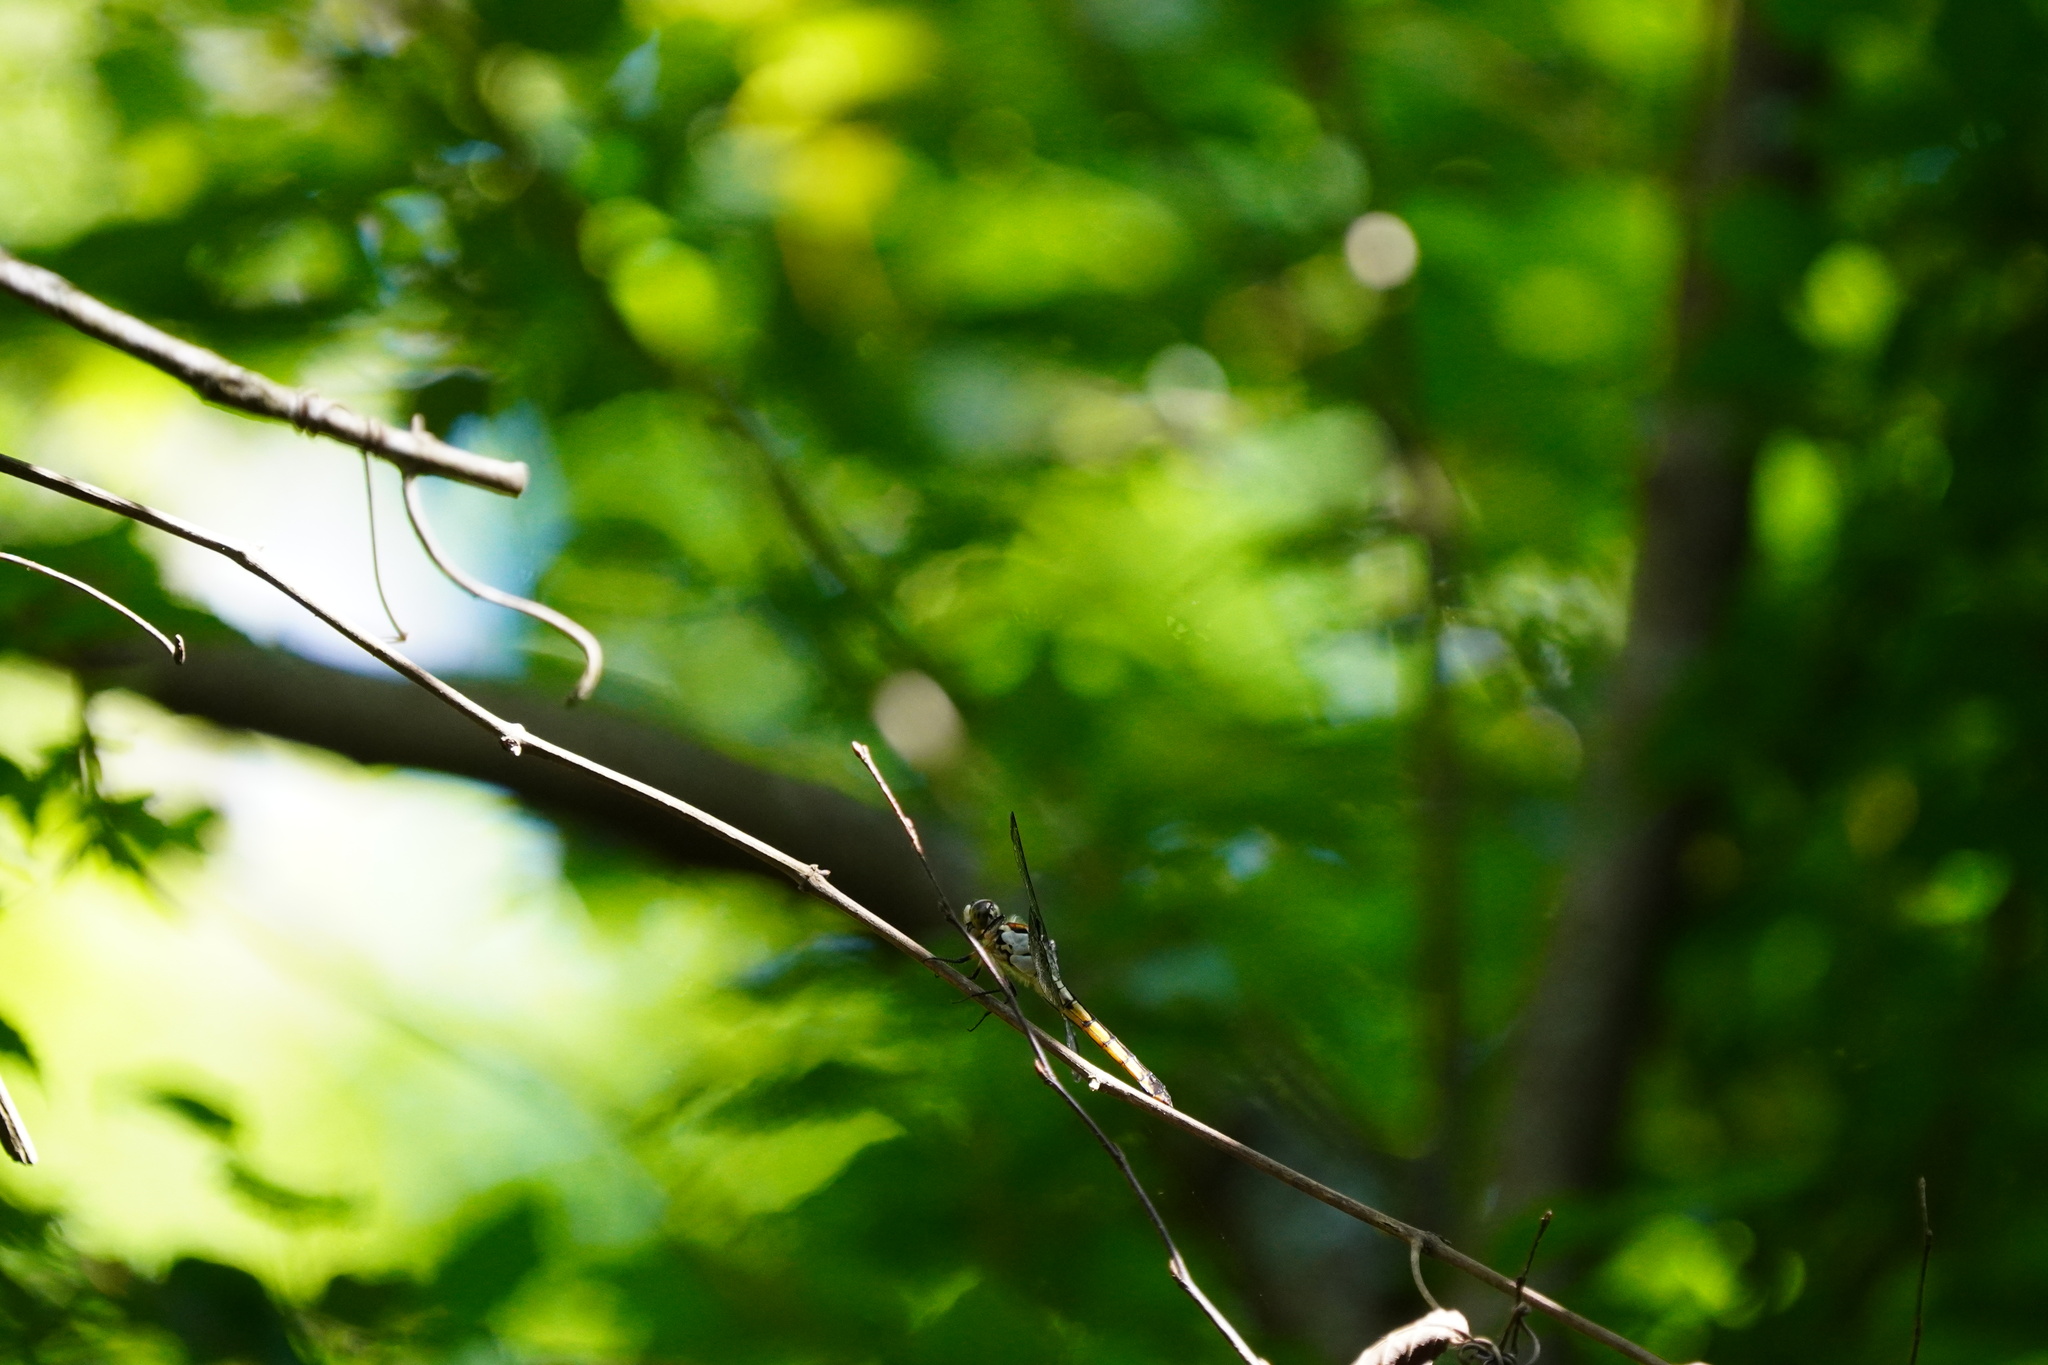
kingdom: Animalia
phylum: Arthropoda
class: Insecta
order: Odonata
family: Libellulidae
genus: Libellula
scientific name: Libellula vibrans
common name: Great blue skimmer
